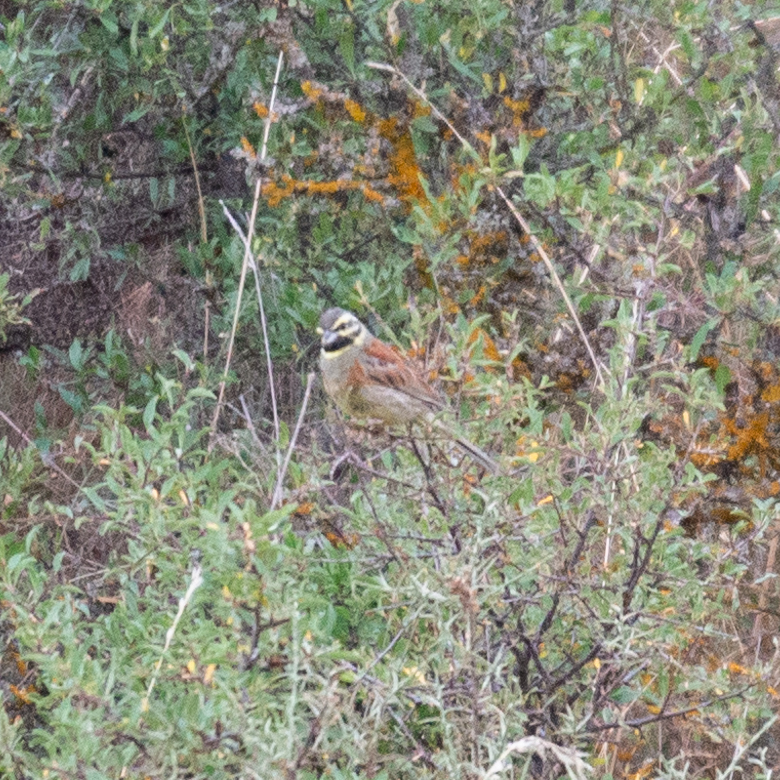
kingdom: Animalia
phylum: Chordata
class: Aves
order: Passeriformes
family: Emberizidae
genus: Emberiza
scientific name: Emberiza cirlus
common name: Cirl bunting
